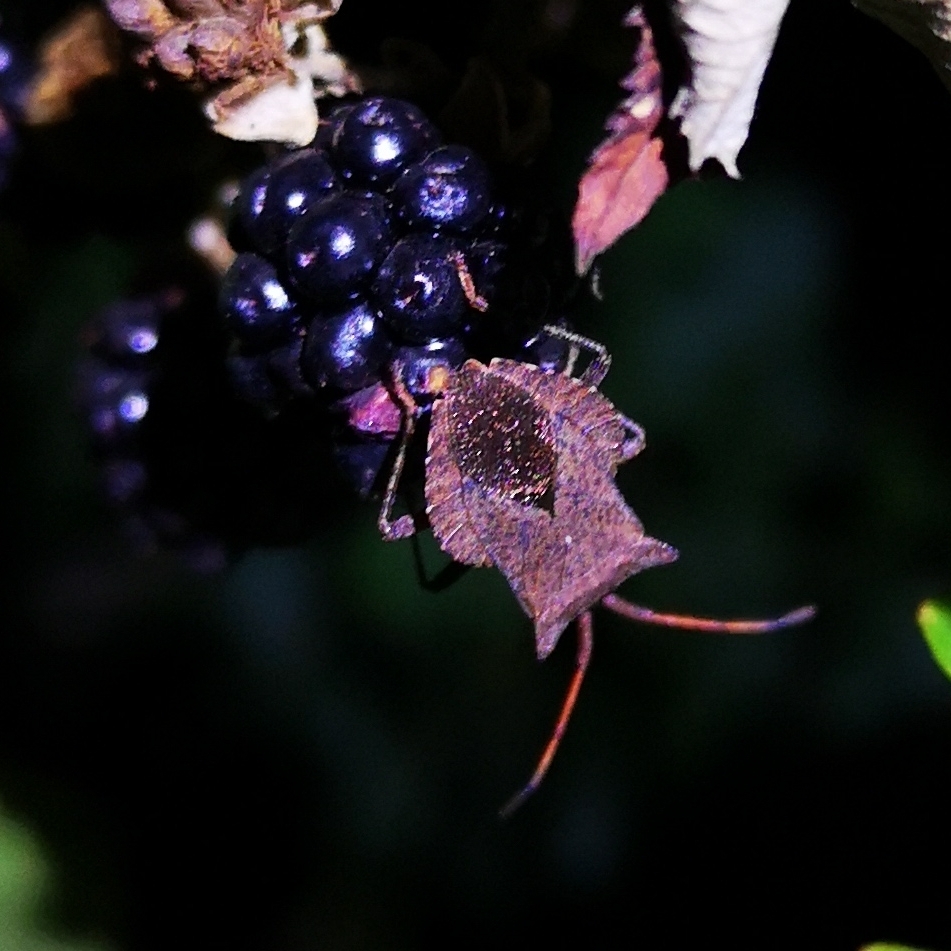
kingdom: Animalia
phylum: Arthropoda
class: Insecta
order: Hemiptera
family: Coreidae
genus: Coreus
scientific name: Coreus marginatus
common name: Dock bug
